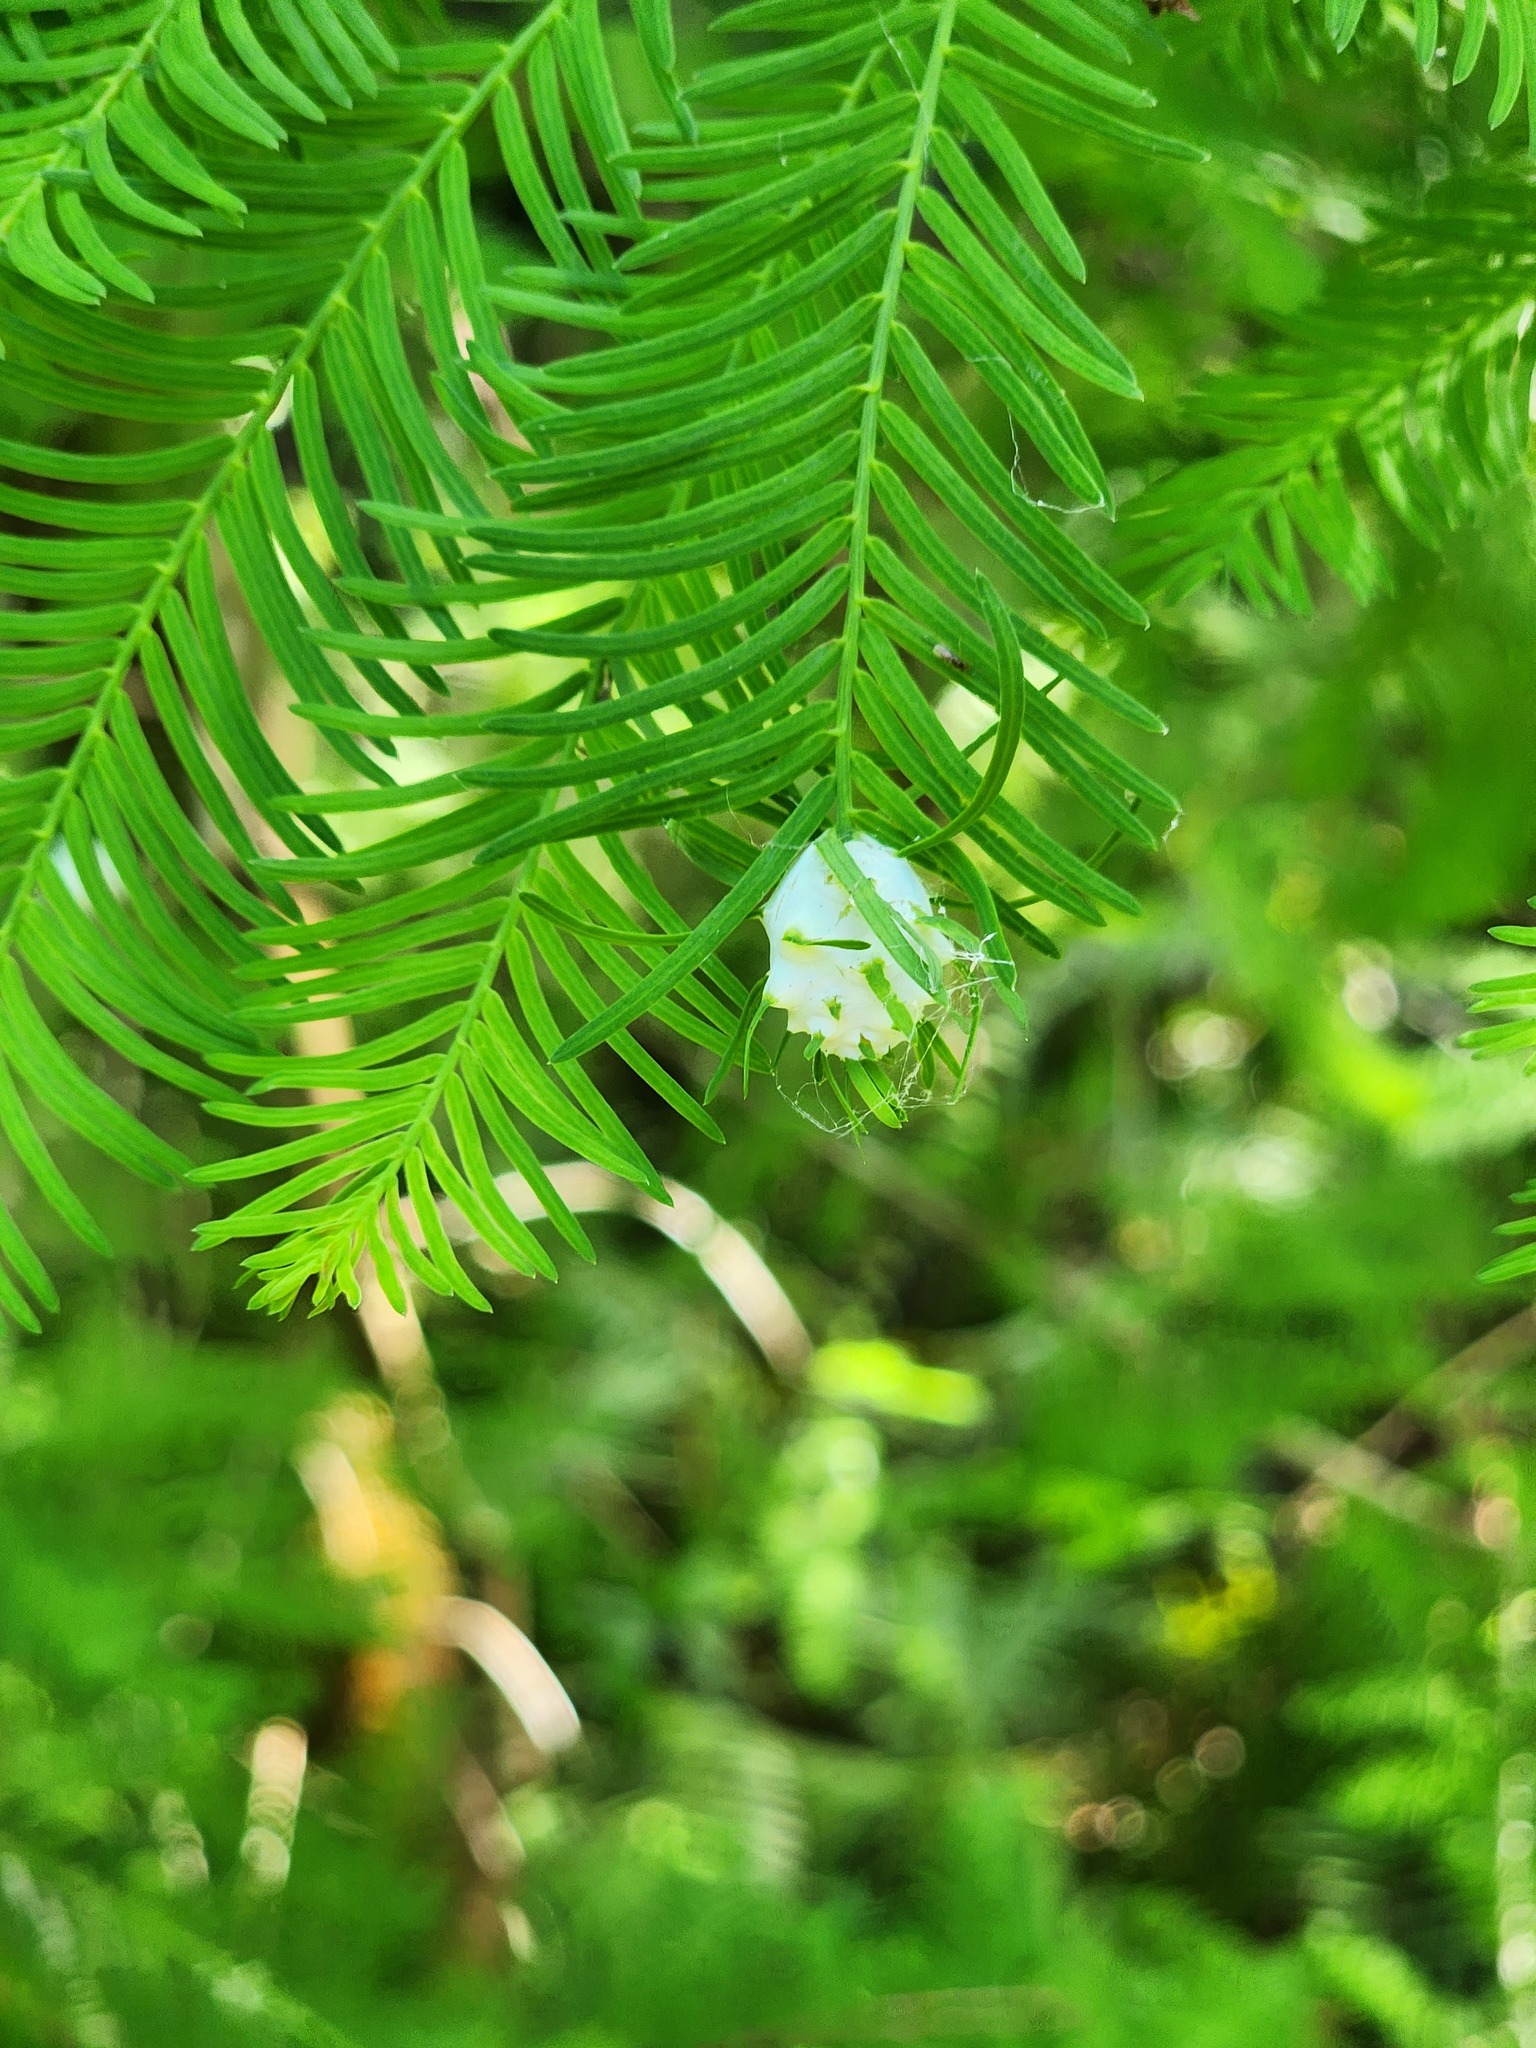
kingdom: Animalia
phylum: Arthropoda
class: Insecta
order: Diptera
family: Cecidomyiidae
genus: Taxodiomyia
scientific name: Taxodiomyia cupressiananassa
